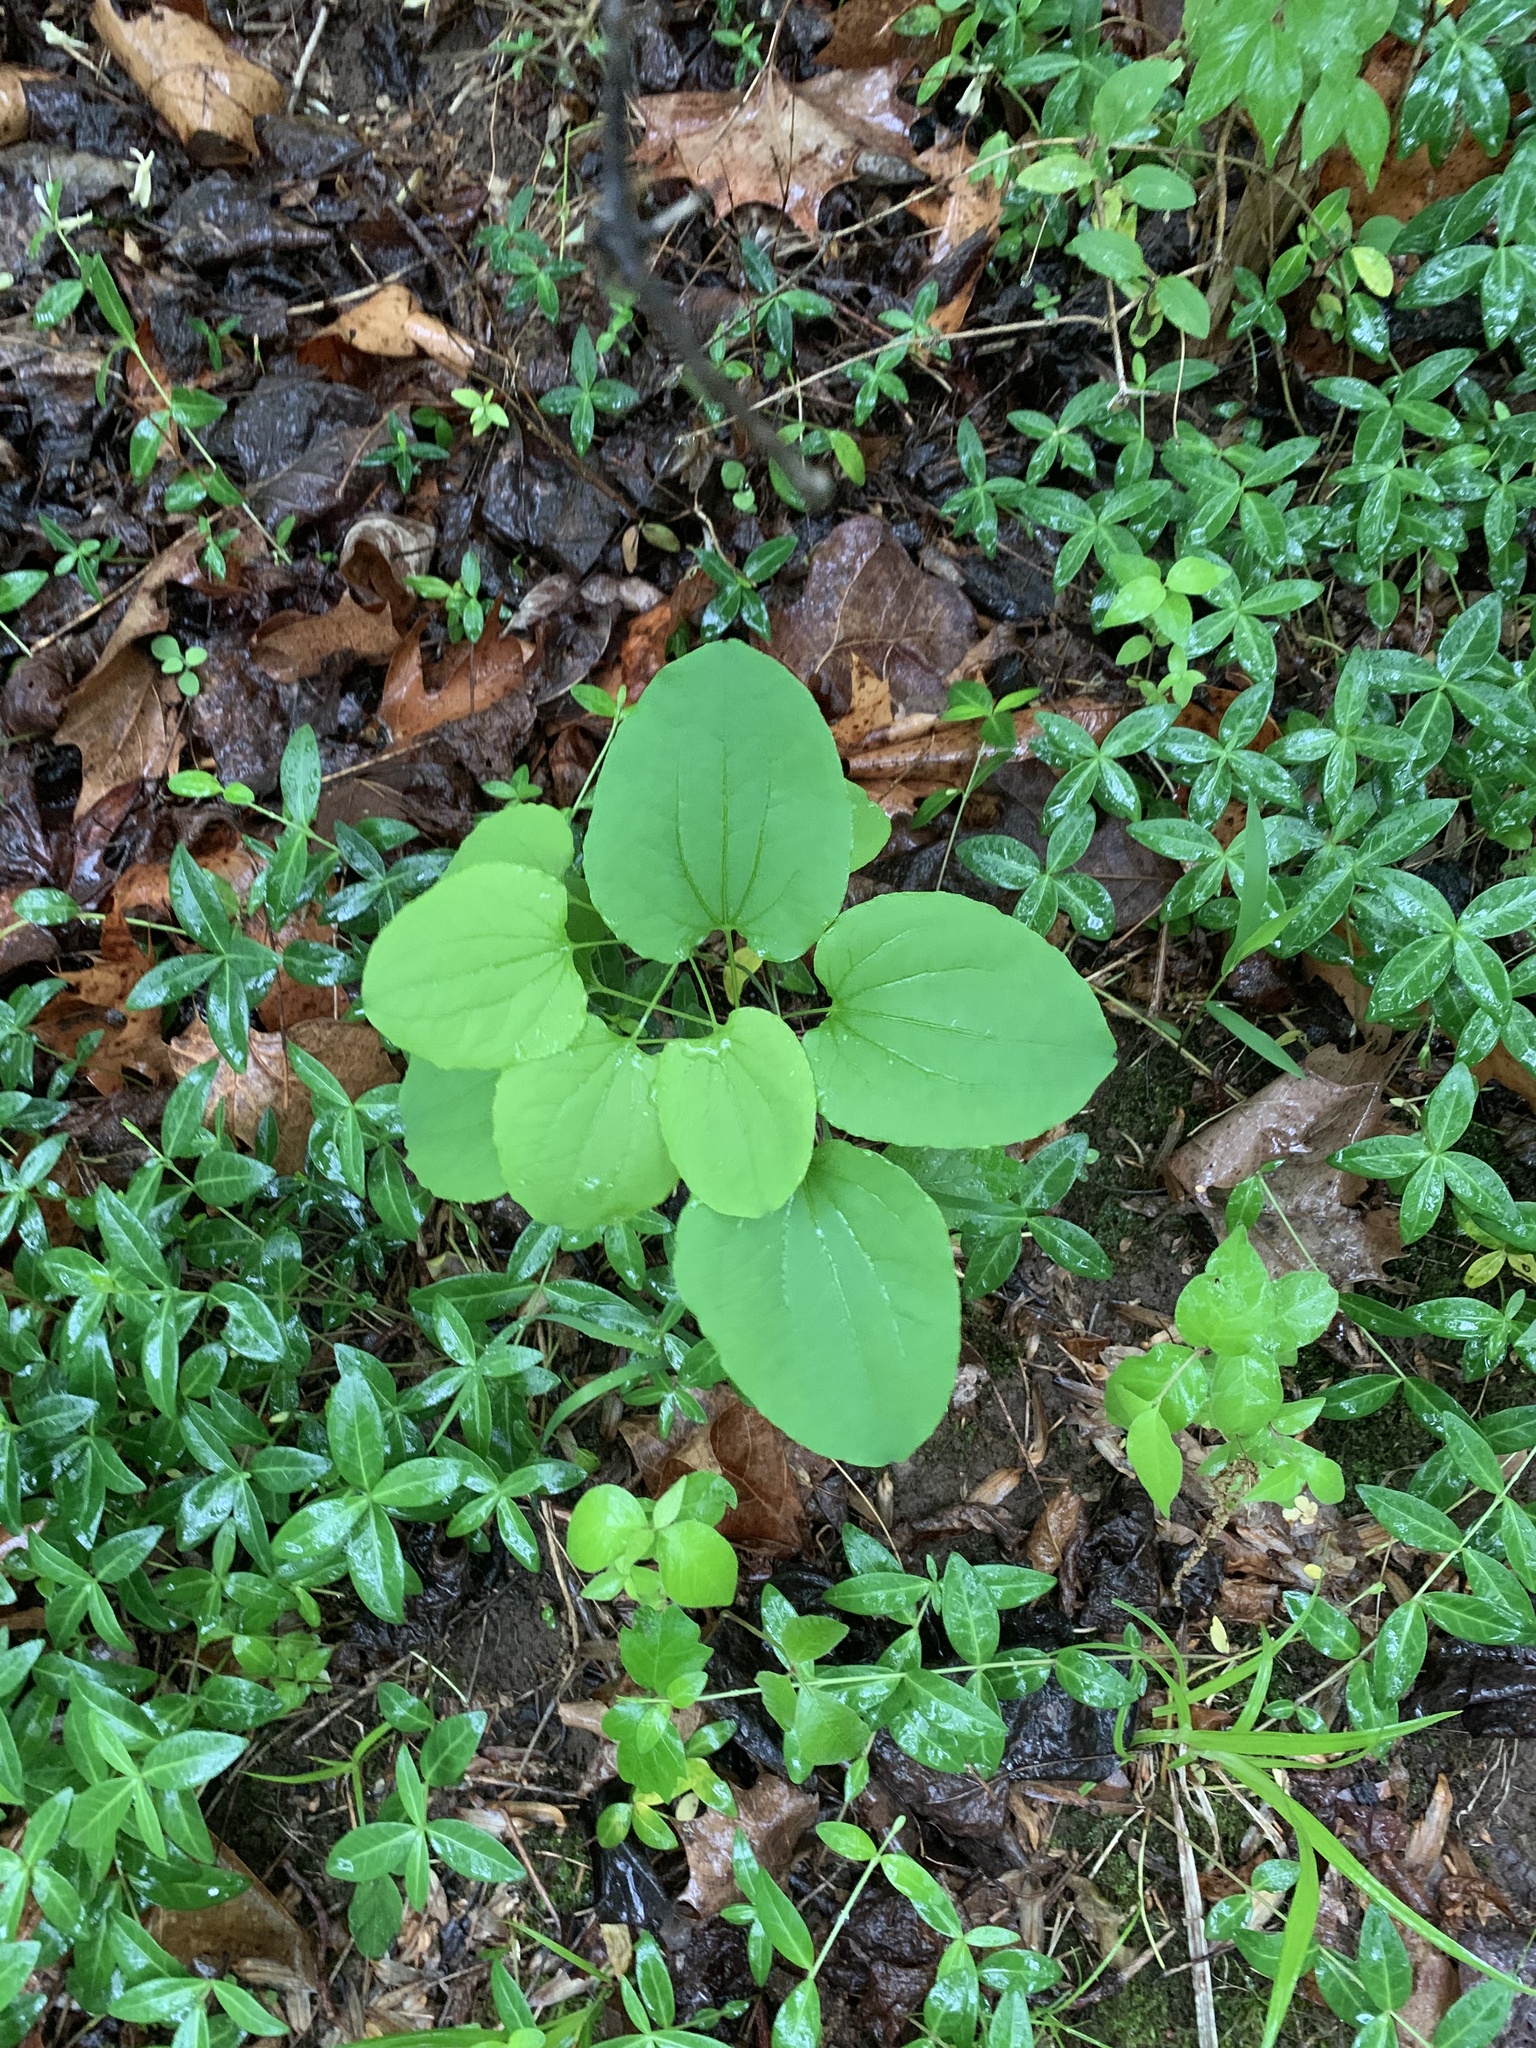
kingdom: Plantae
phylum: Tracheophyta
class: Liliopsida
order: Dioscoreales
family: Dioscoreaceae
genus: Dioscorea
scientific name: Dioscorea villosa
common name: Wild yam
